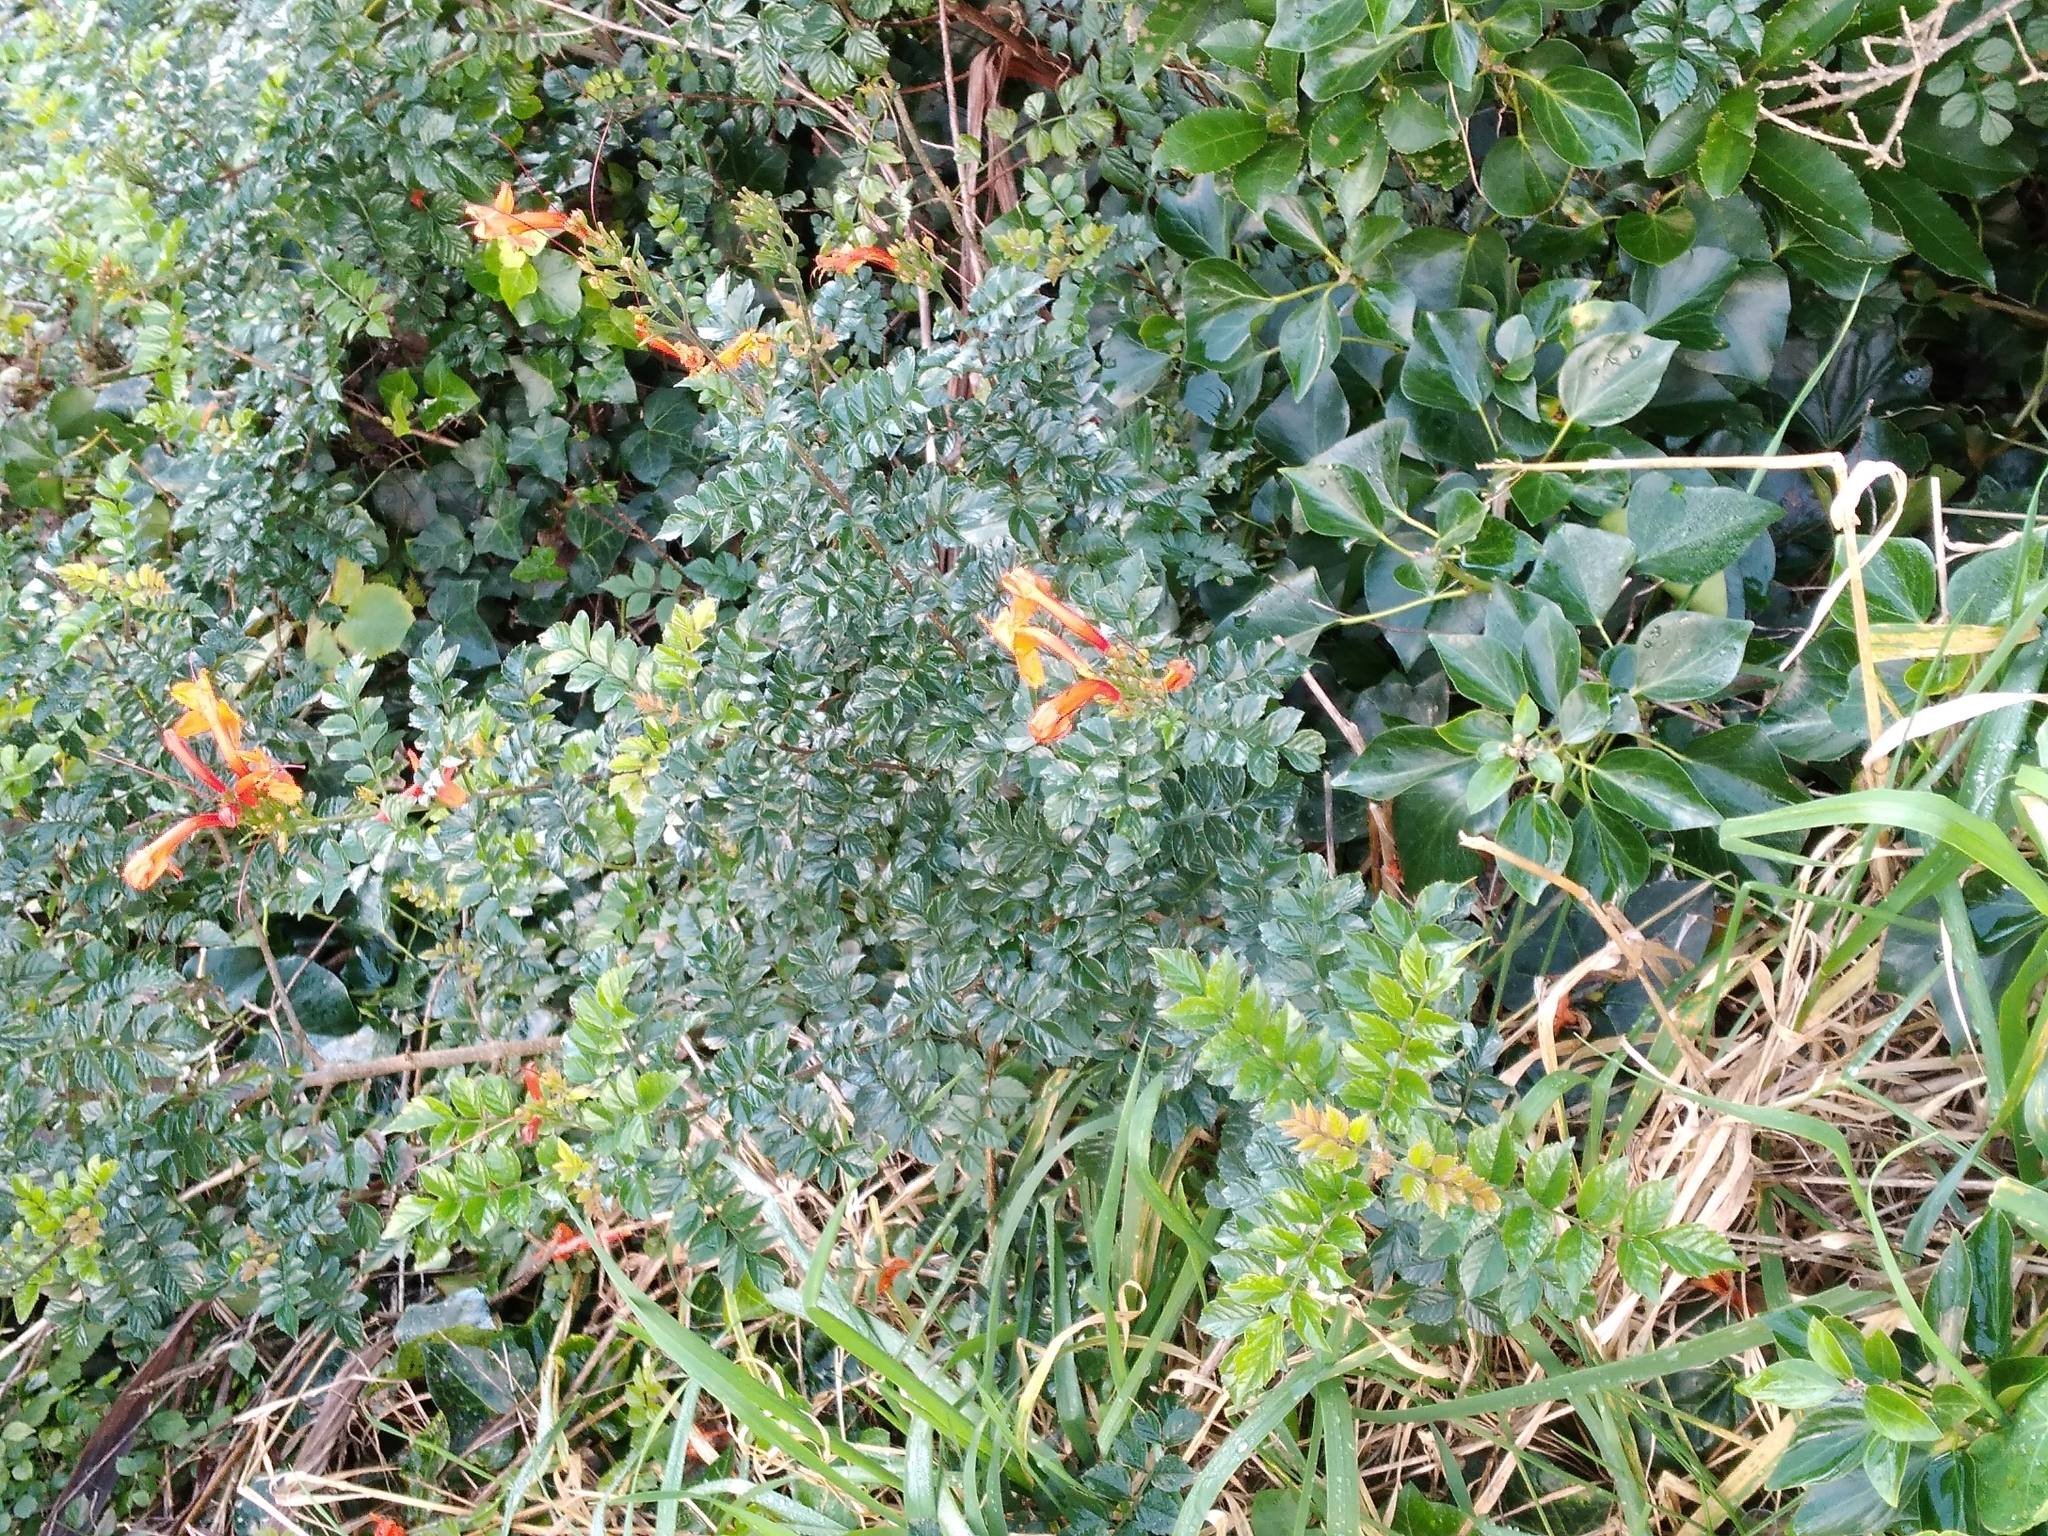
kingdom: Plantae
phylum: Tracheophyta
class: Magnoliopsida
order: Lamiales
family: Bignoniaceae
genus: Tecomaria
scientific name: Tecomaria capensis
